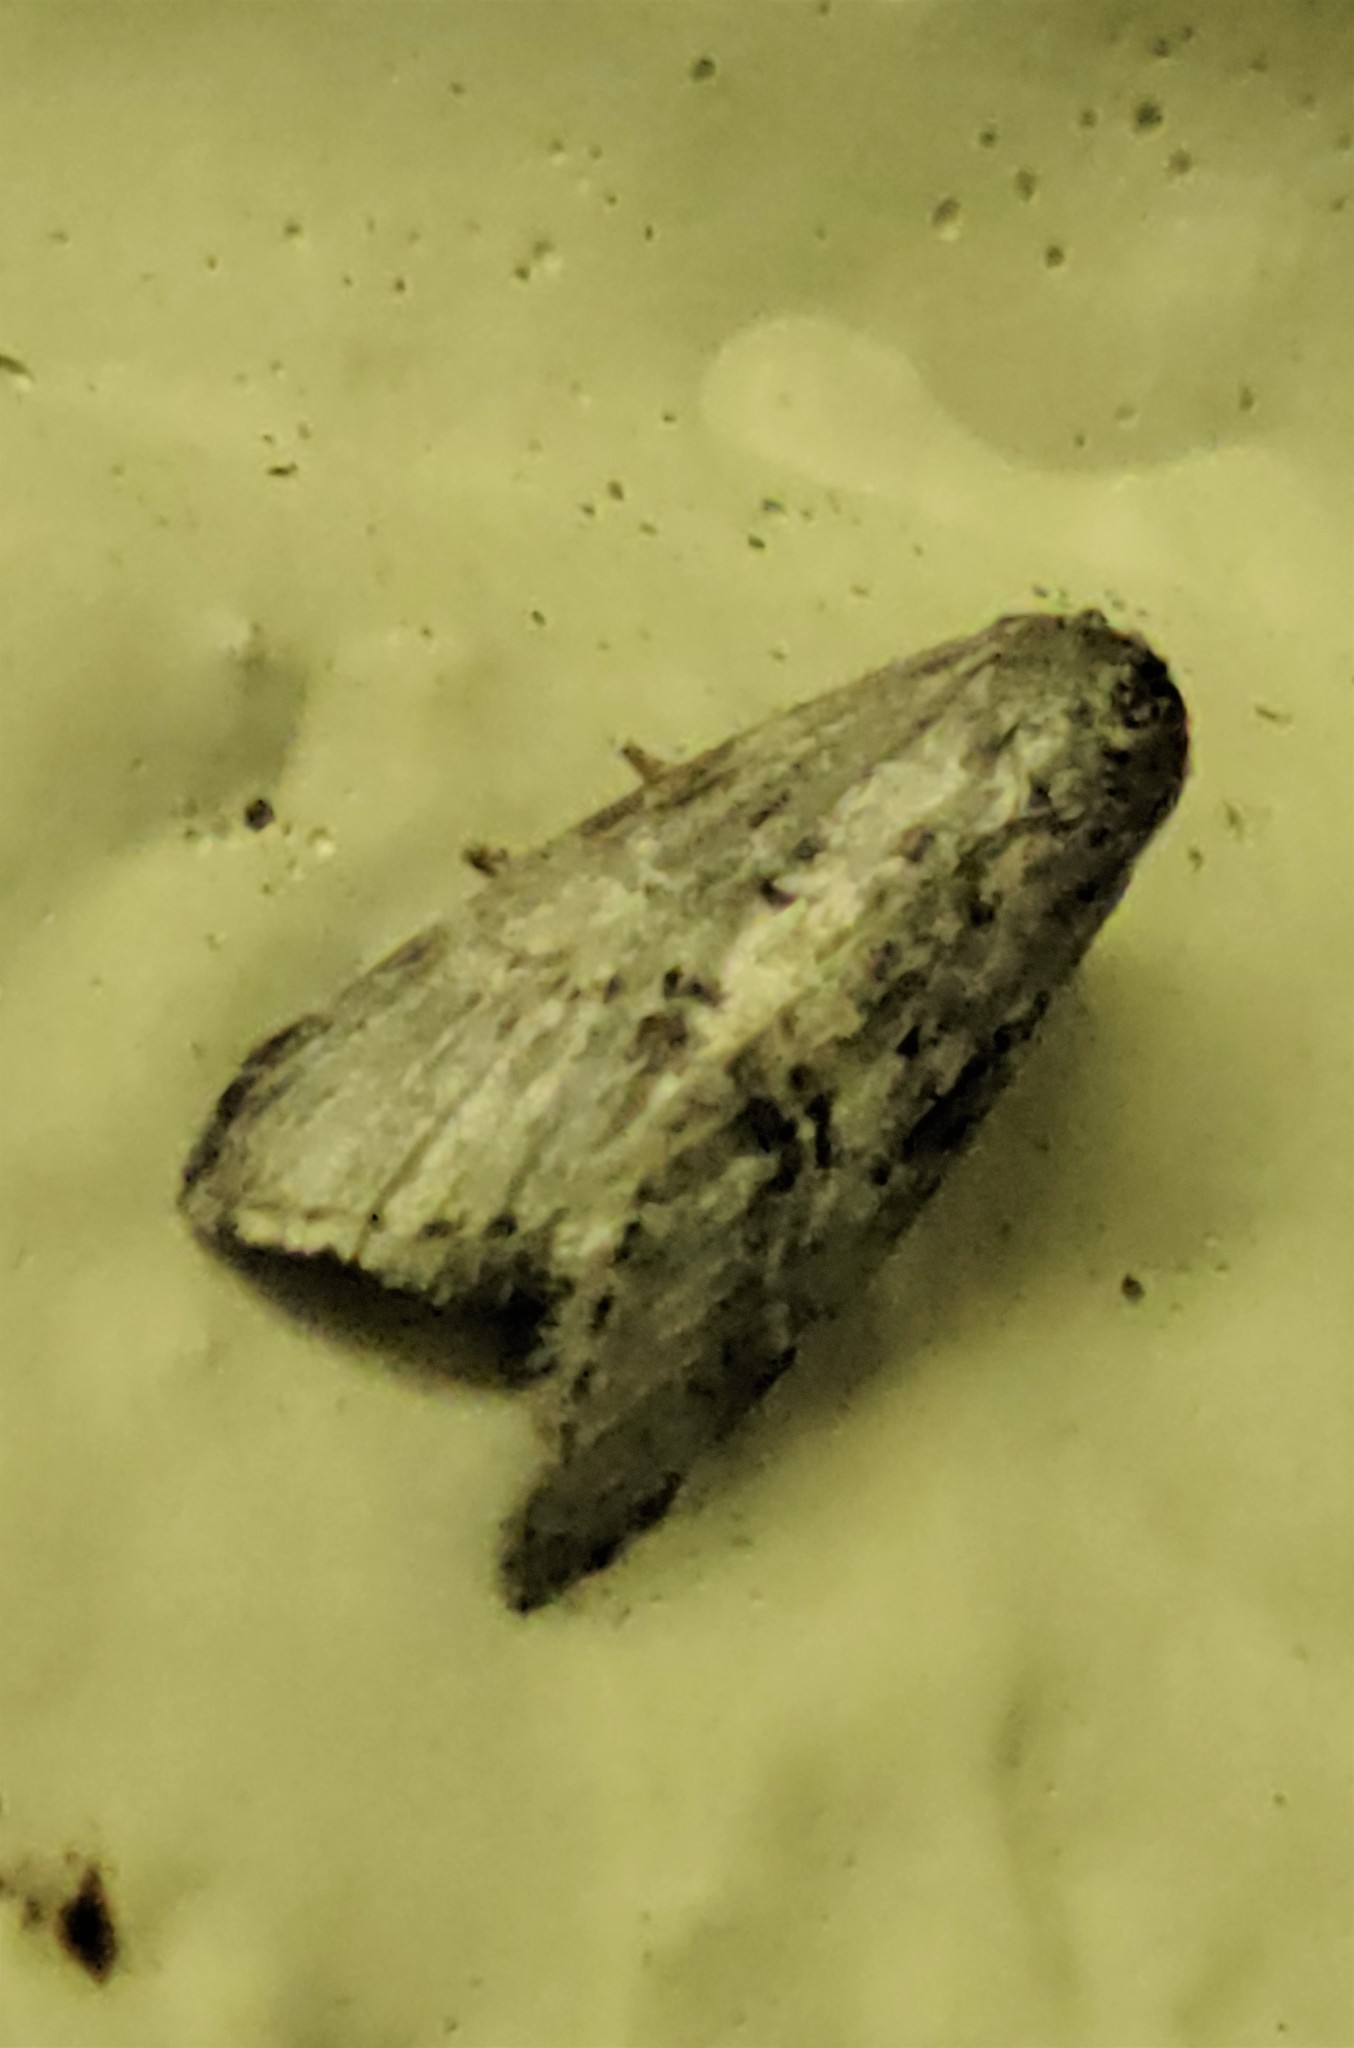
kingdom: Animalia
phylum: Arthropoda
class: Insecta
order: Lepidoptera
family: Noctuidae
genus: Cephalospargeta
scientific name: Cephalospargeta elongata
